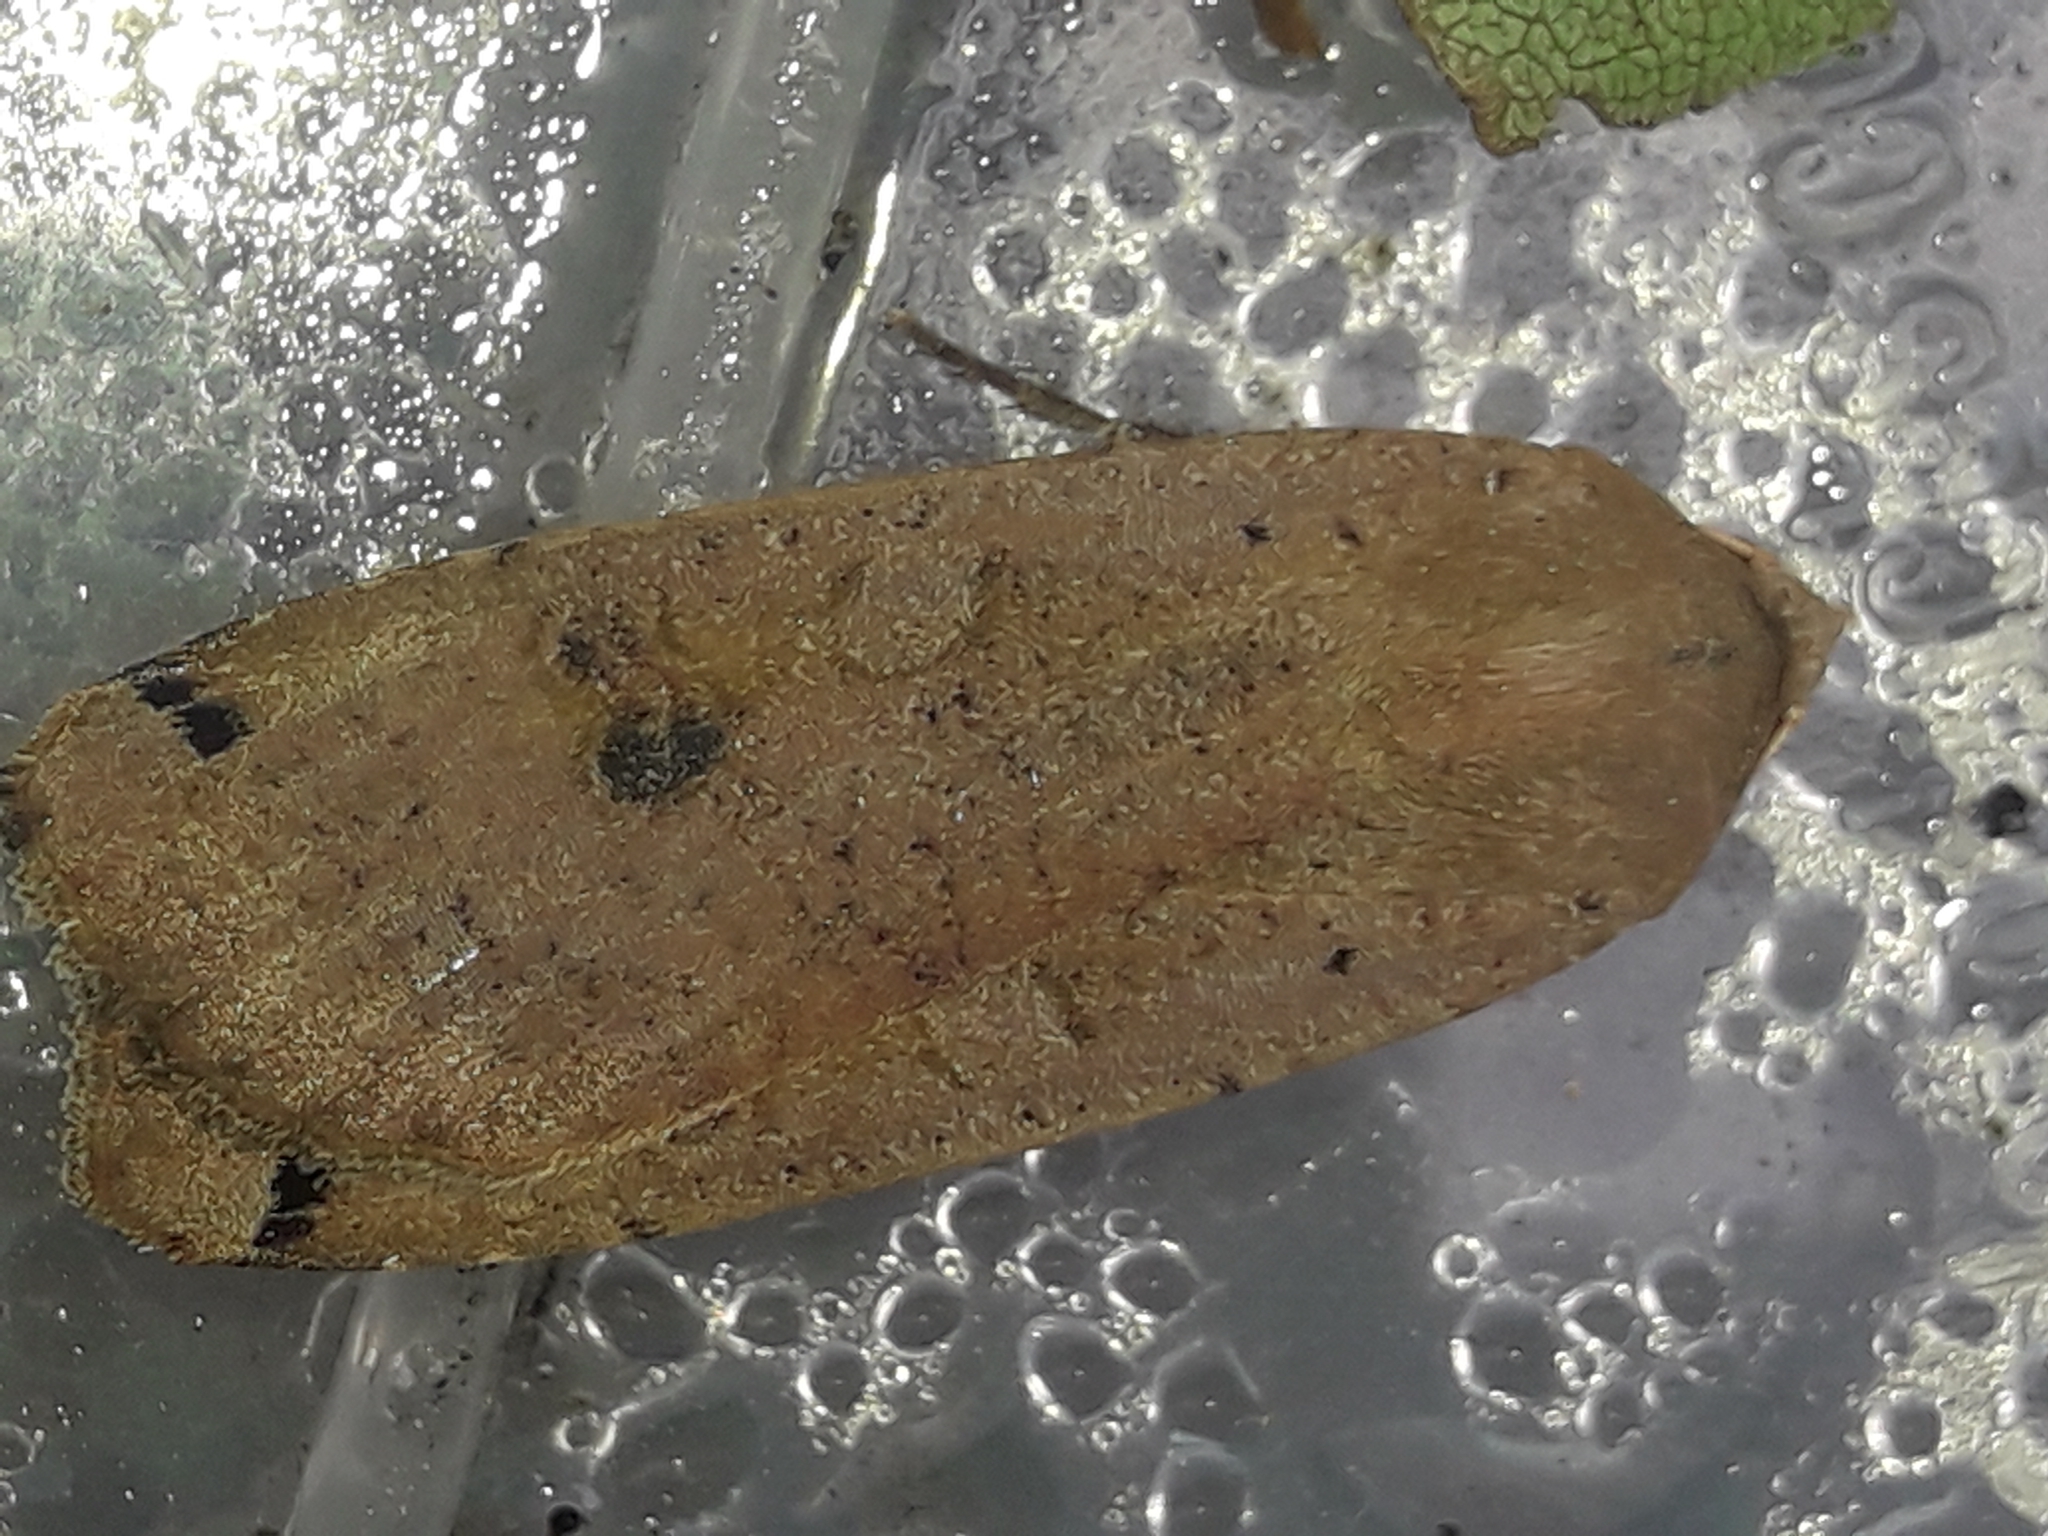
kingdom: Animalia
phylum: Arthropoda
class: Insecta
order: Lepidoptera
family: Noctuidae
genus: Noctua
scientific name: Noctua pronuba
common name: Large yellow underwing
